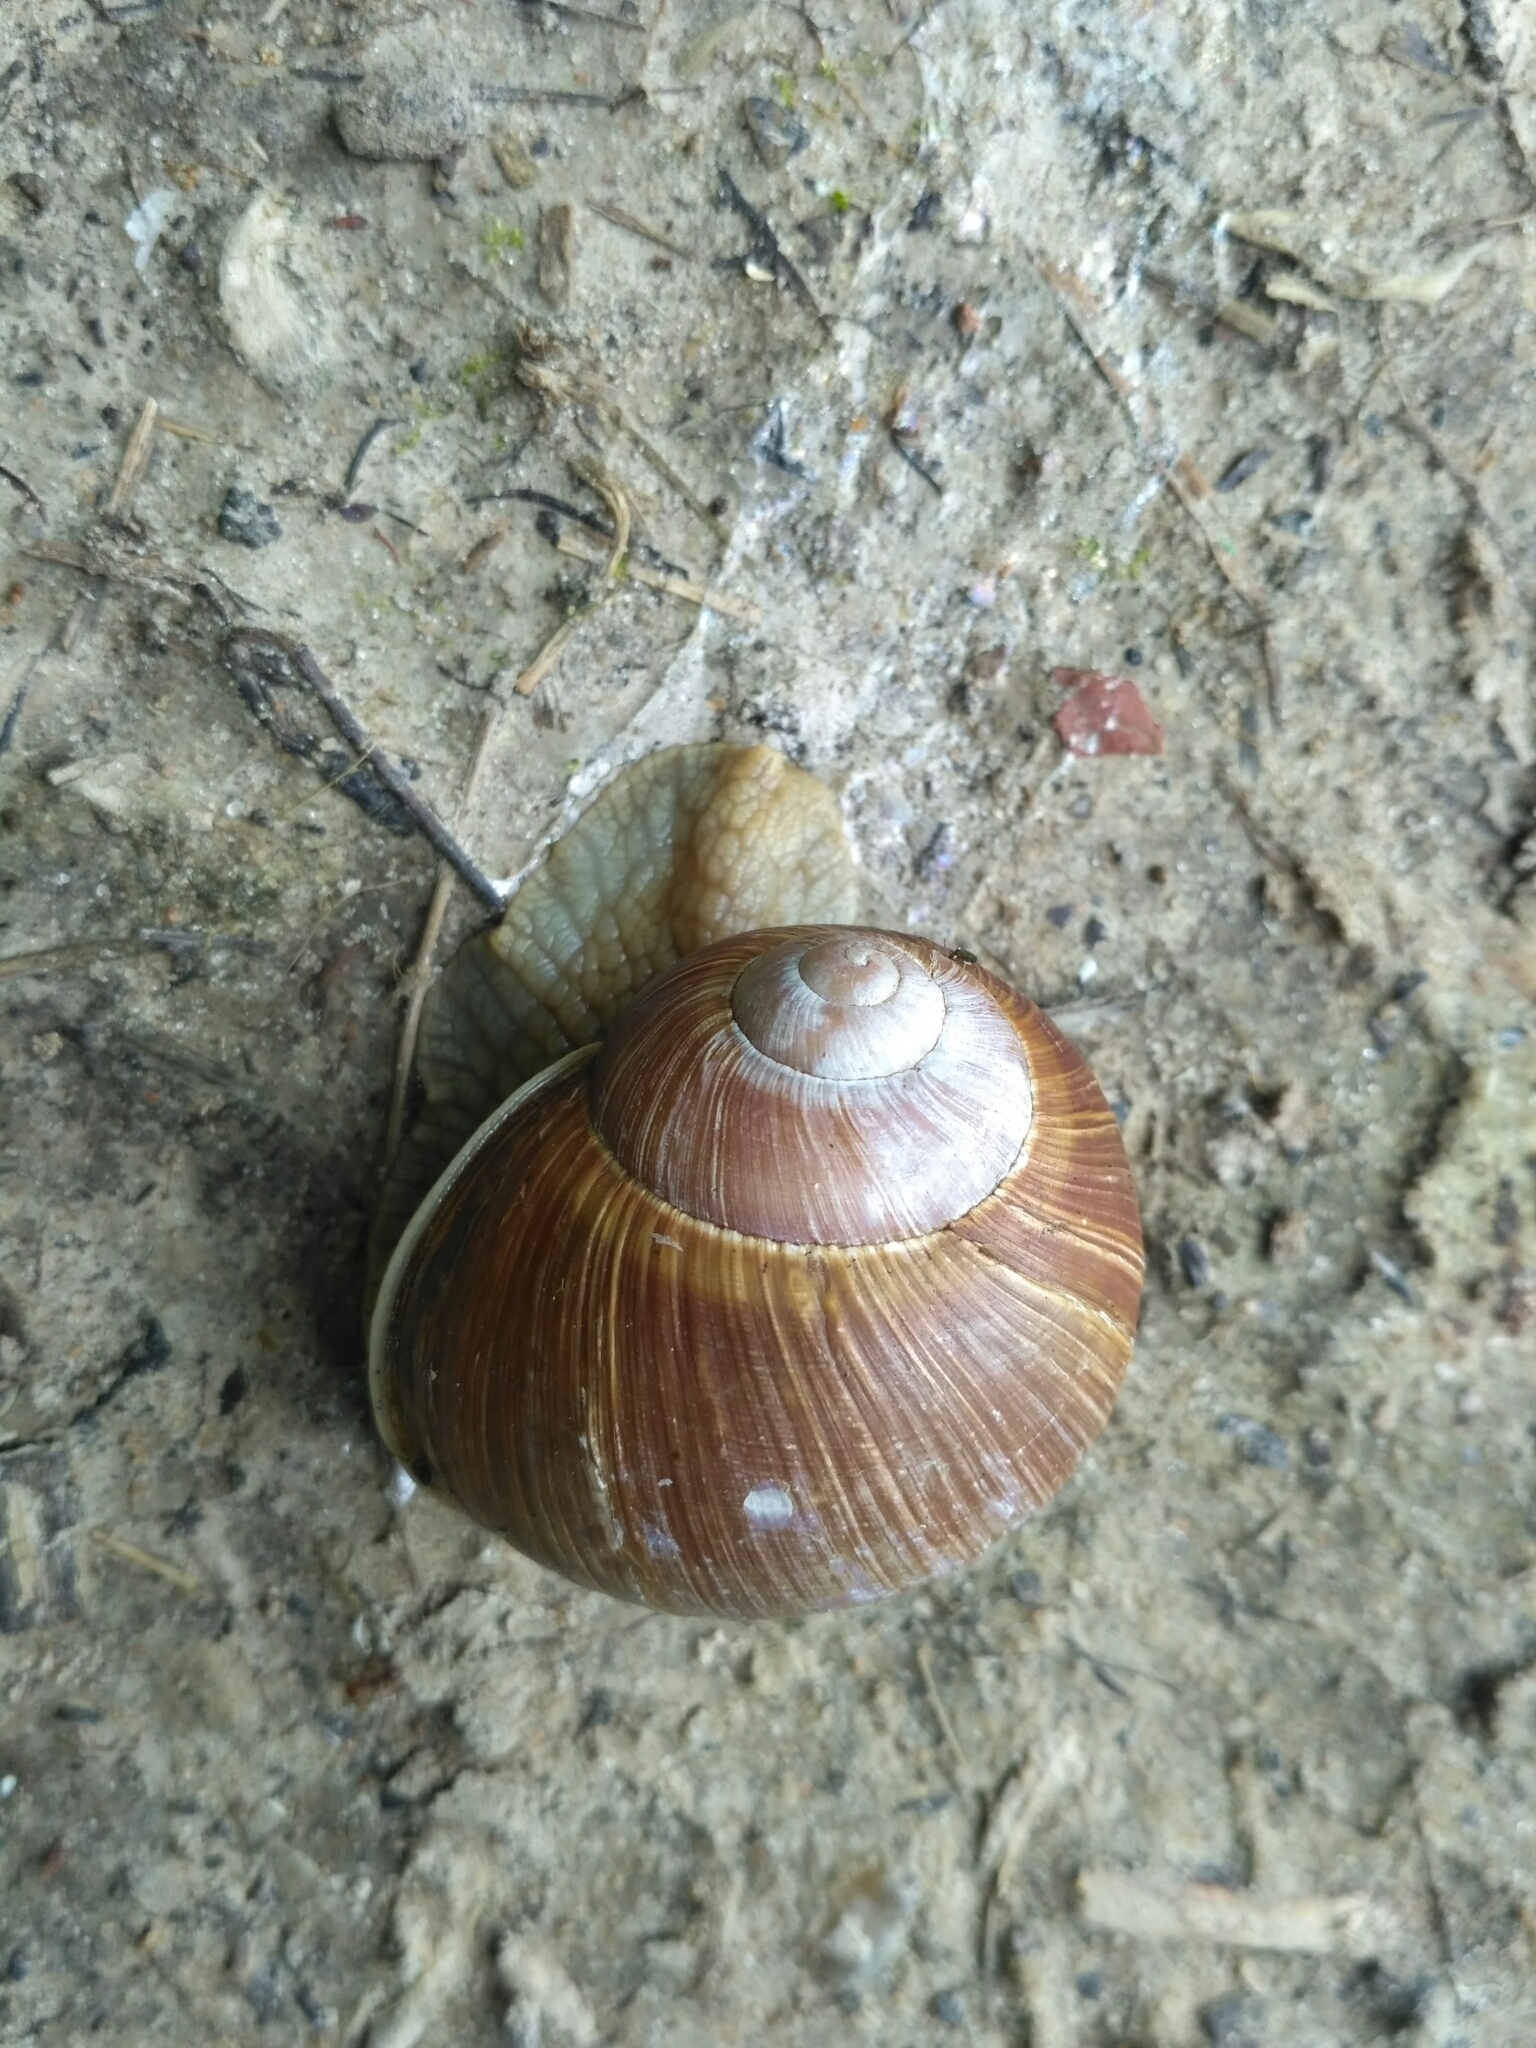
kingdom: Animalia
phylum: Mollusca
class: Gastropoda
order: Stylommatophora
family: Helicidae
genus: Helix
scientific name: Helix pomatia
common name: Roman snail
